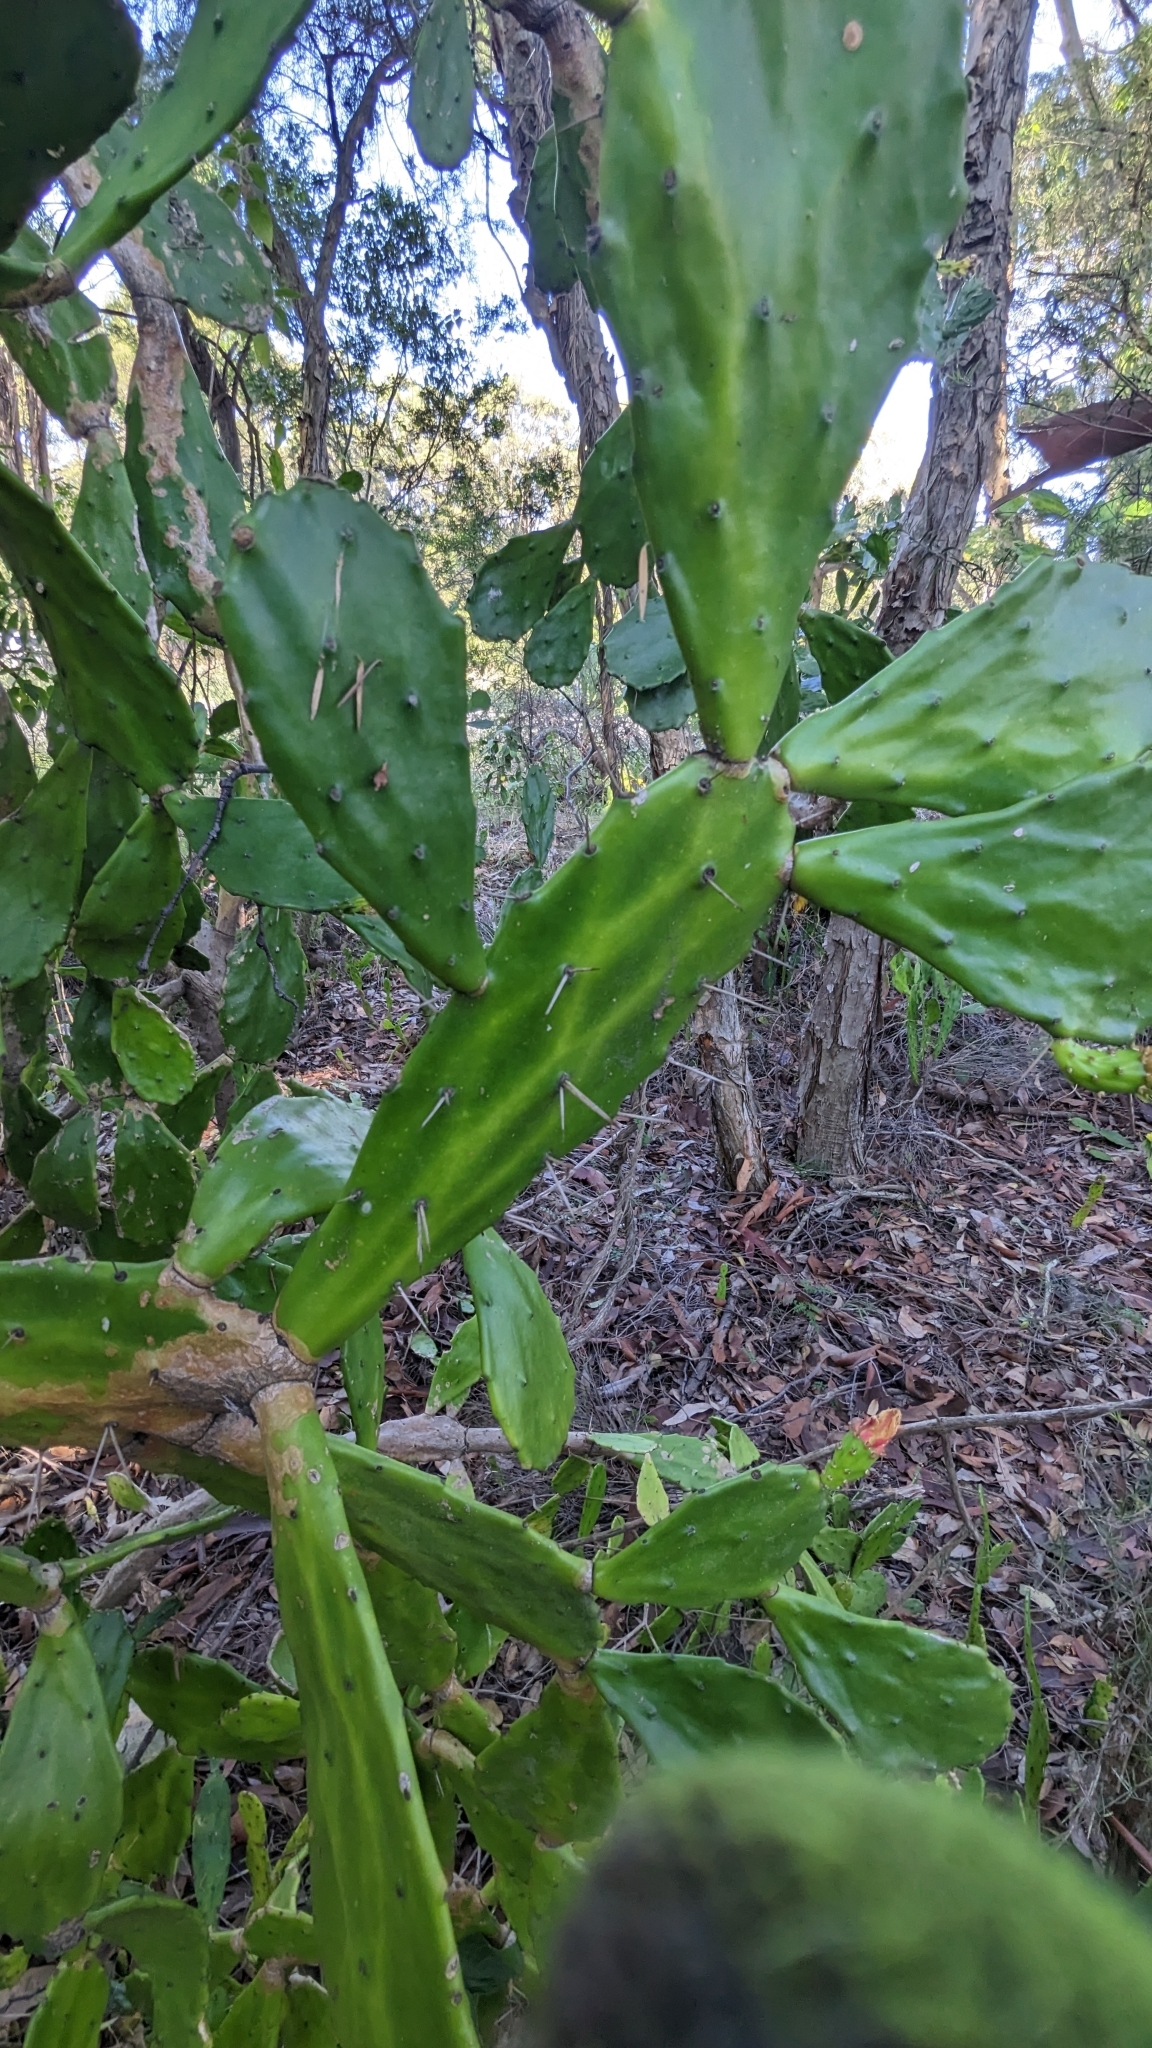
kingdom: Plantae
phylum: Tracheophyta
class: Magnoliopsida
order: Caryophyllales
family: Cactaceae
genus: Opuntia
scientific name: Opuntia monacantha
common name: Common pricklypear
